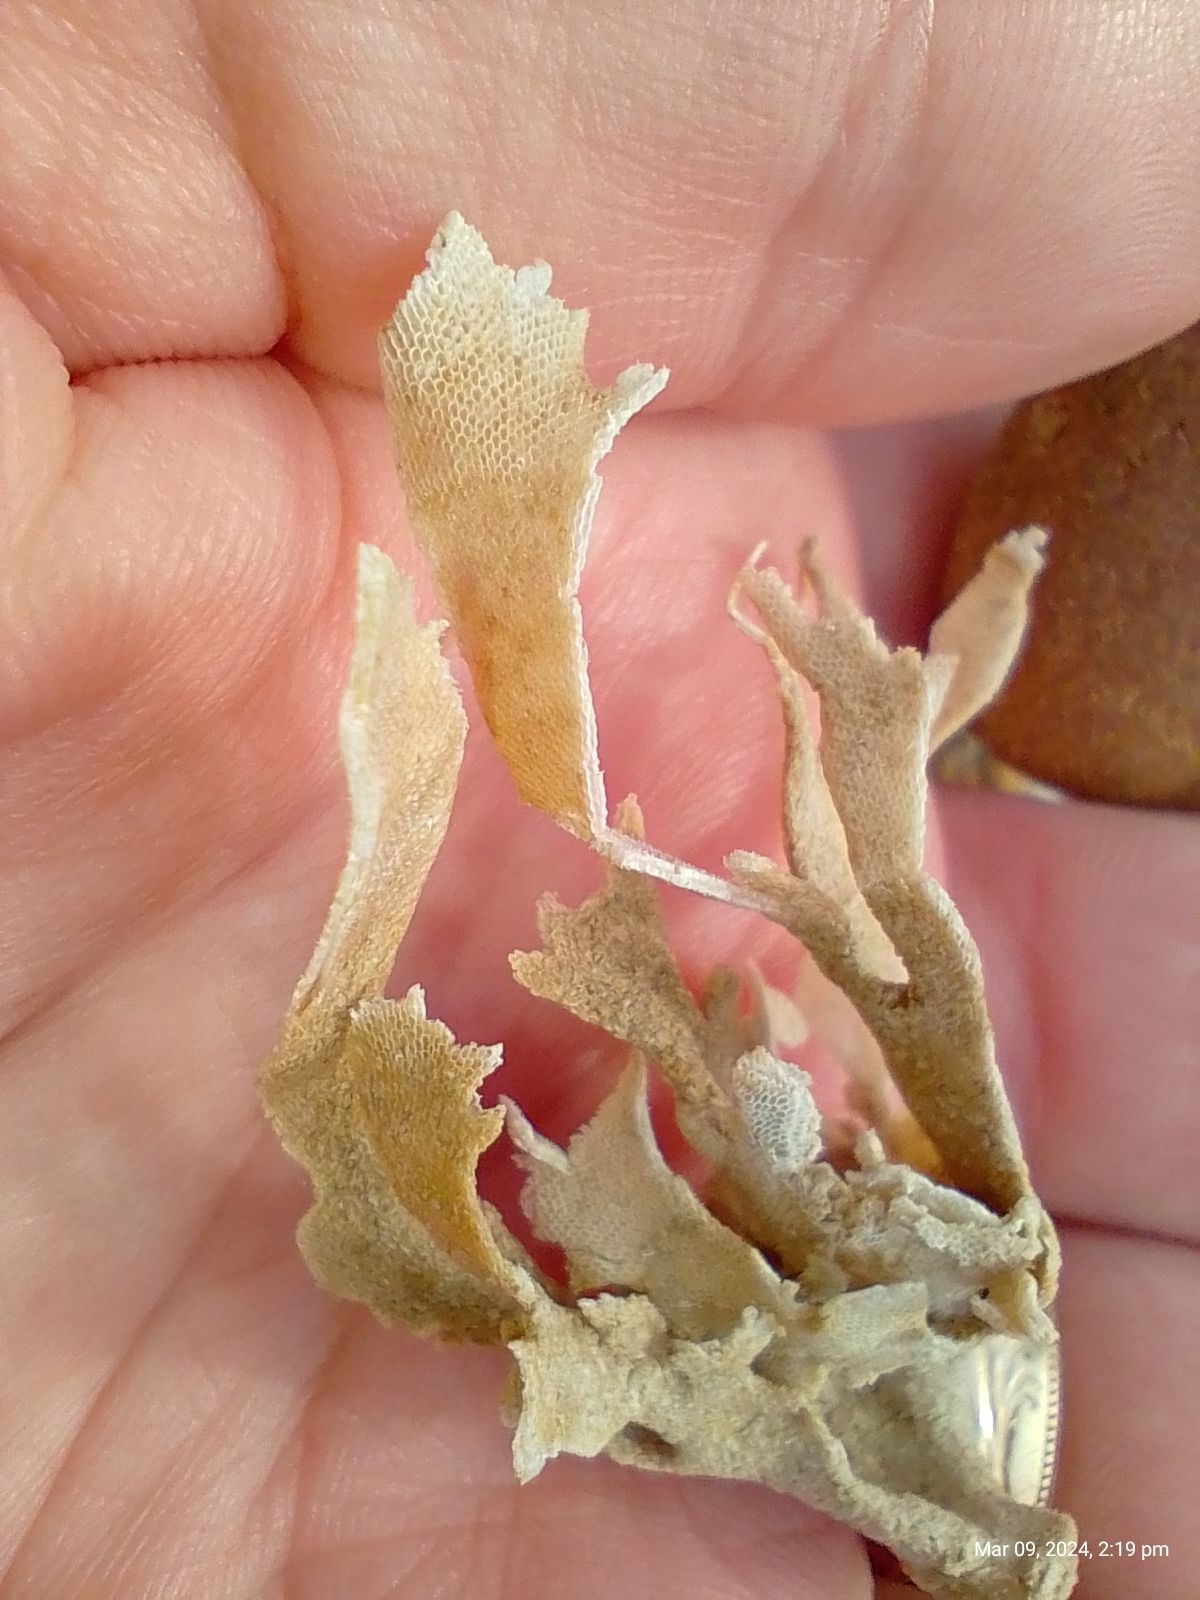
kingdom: Animalia
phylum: Bryozoa
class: Gymnolaemata
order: Cheilostomatida
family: Flustridae
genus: Flustra
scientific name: Flustra foliacea
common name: Hornwrack
